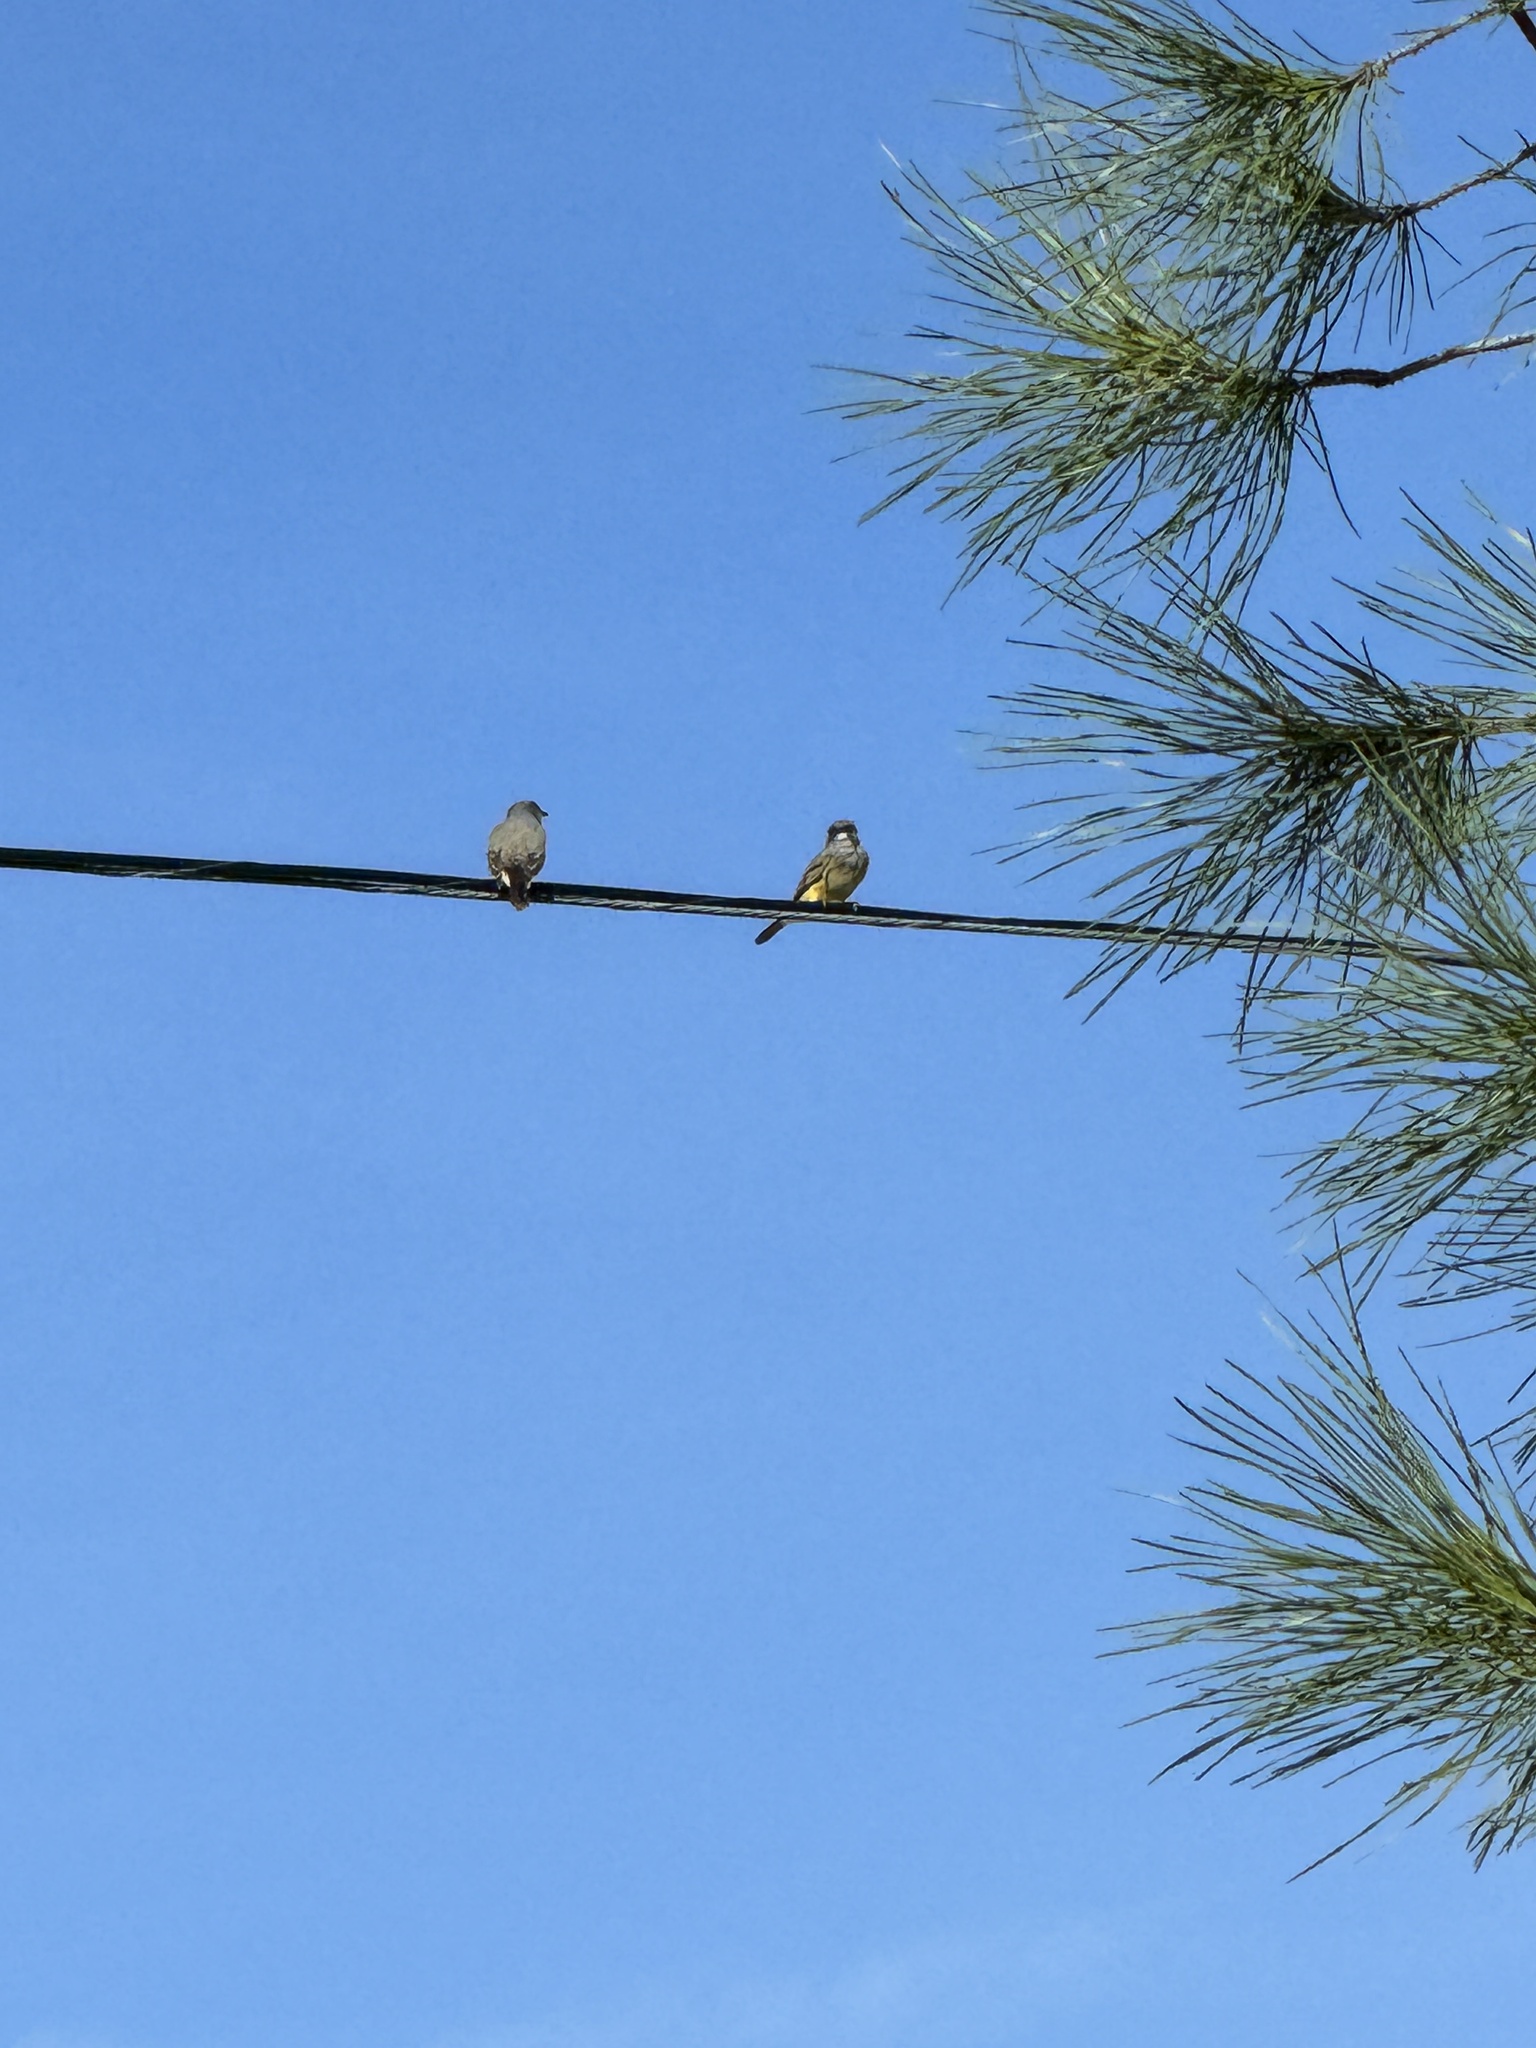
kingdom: Animalia
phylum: Chordata
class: Aves
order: Passeriformes
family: Tyrannidae
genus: Tyrannus
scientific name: Tyrannus vociferans
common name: Cassin's kingbird
